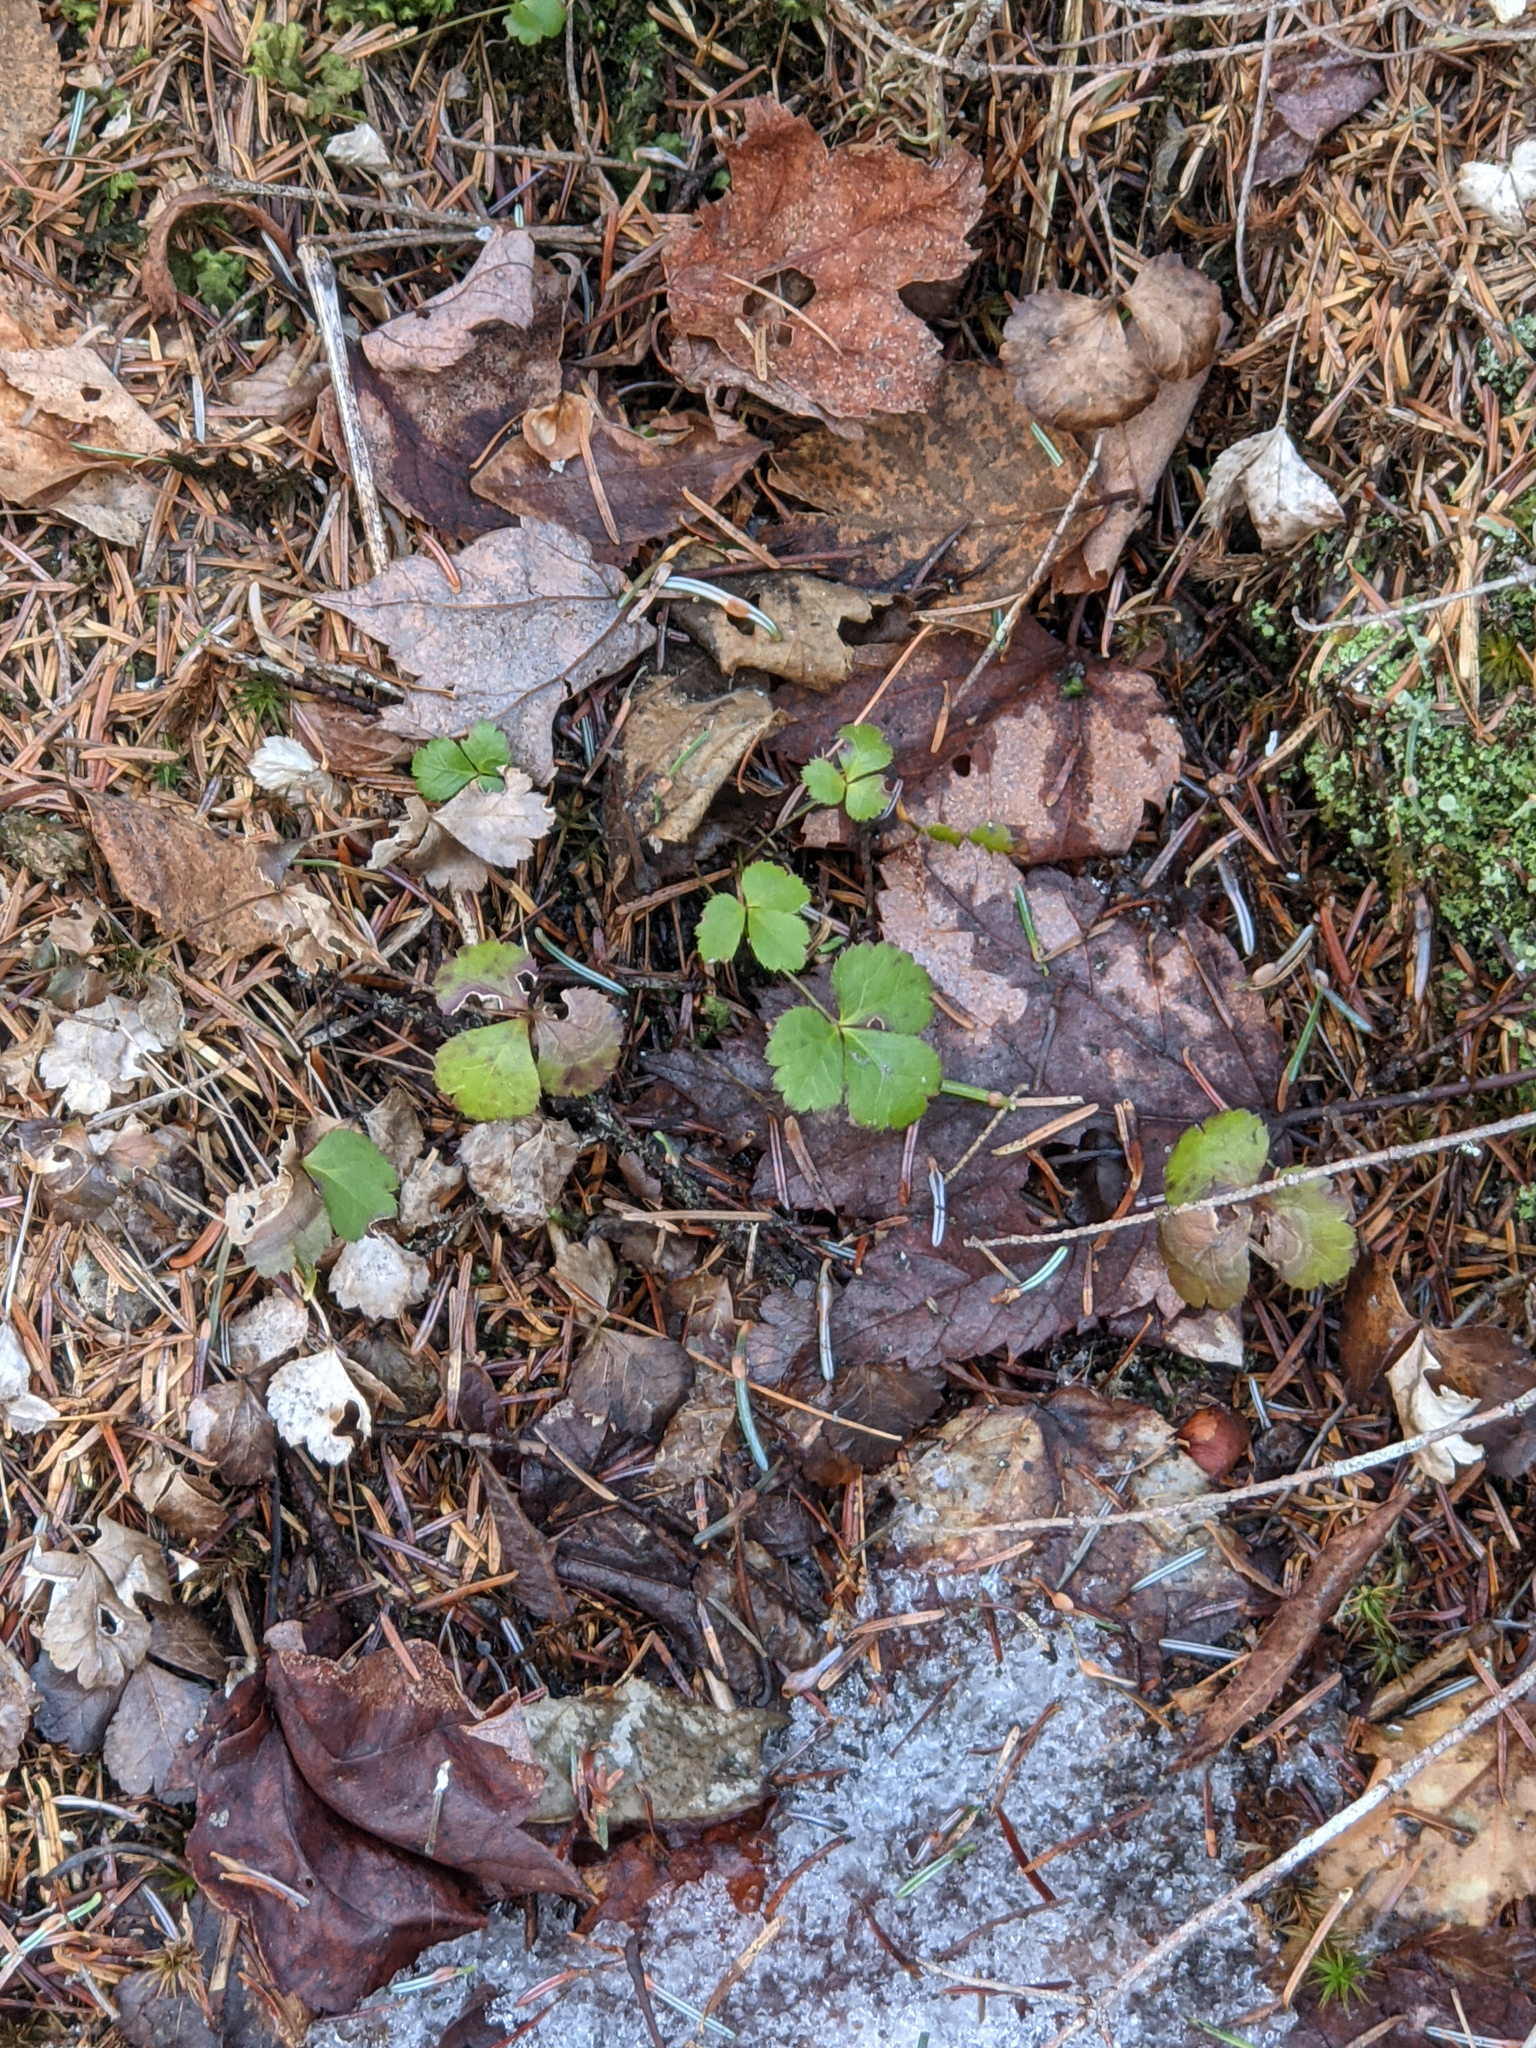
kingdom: Plantae
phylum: Tracheophyta
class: Magnoliopsida
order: Ranunculales
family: Ranunculaceae
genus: Coptis
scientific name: Coptis trifolia
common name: Canker-root
